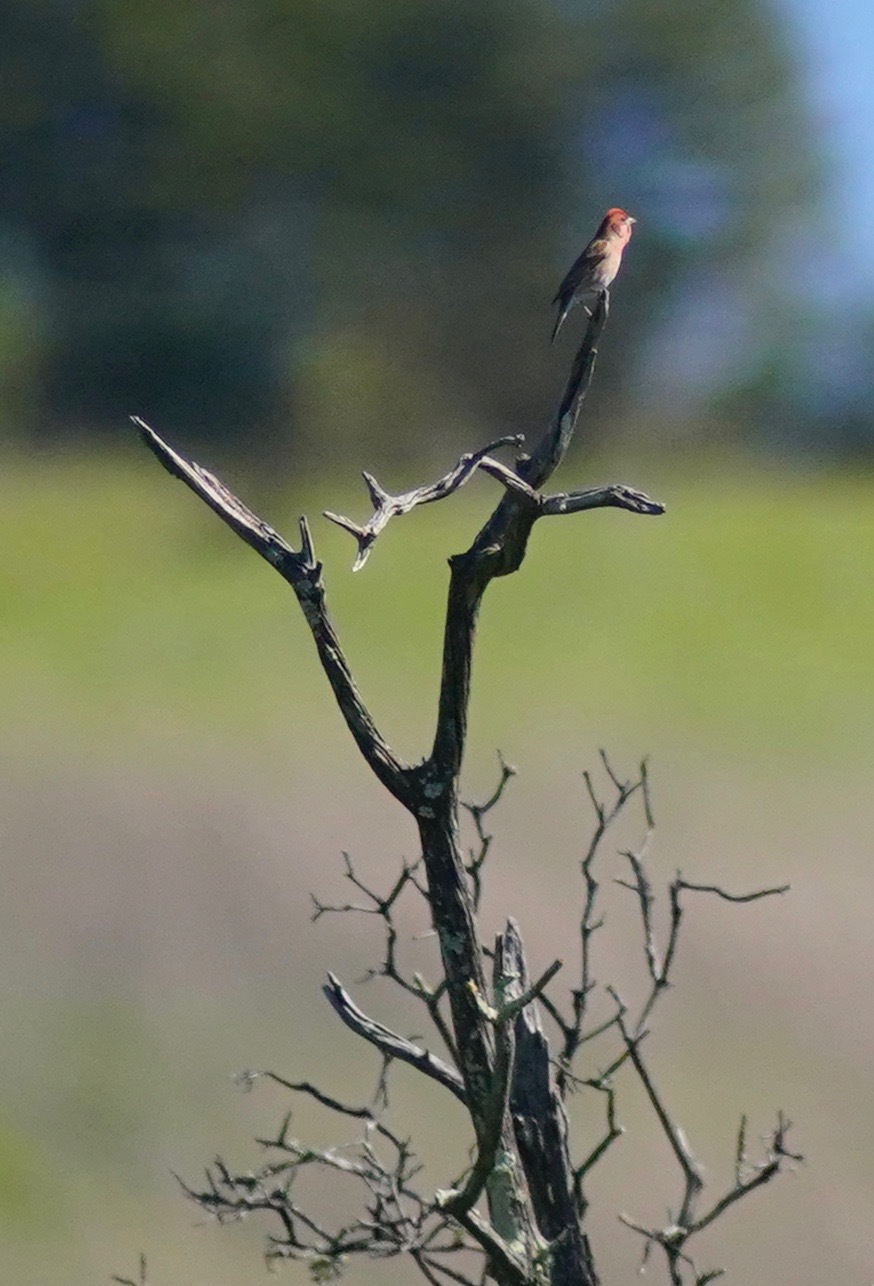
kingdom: Animalia
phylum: Chordata
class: Aves
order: Passeriformes
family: Fringillidae
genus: Haemorhous
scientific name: Haemorhous purpureus
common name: Purple finch
